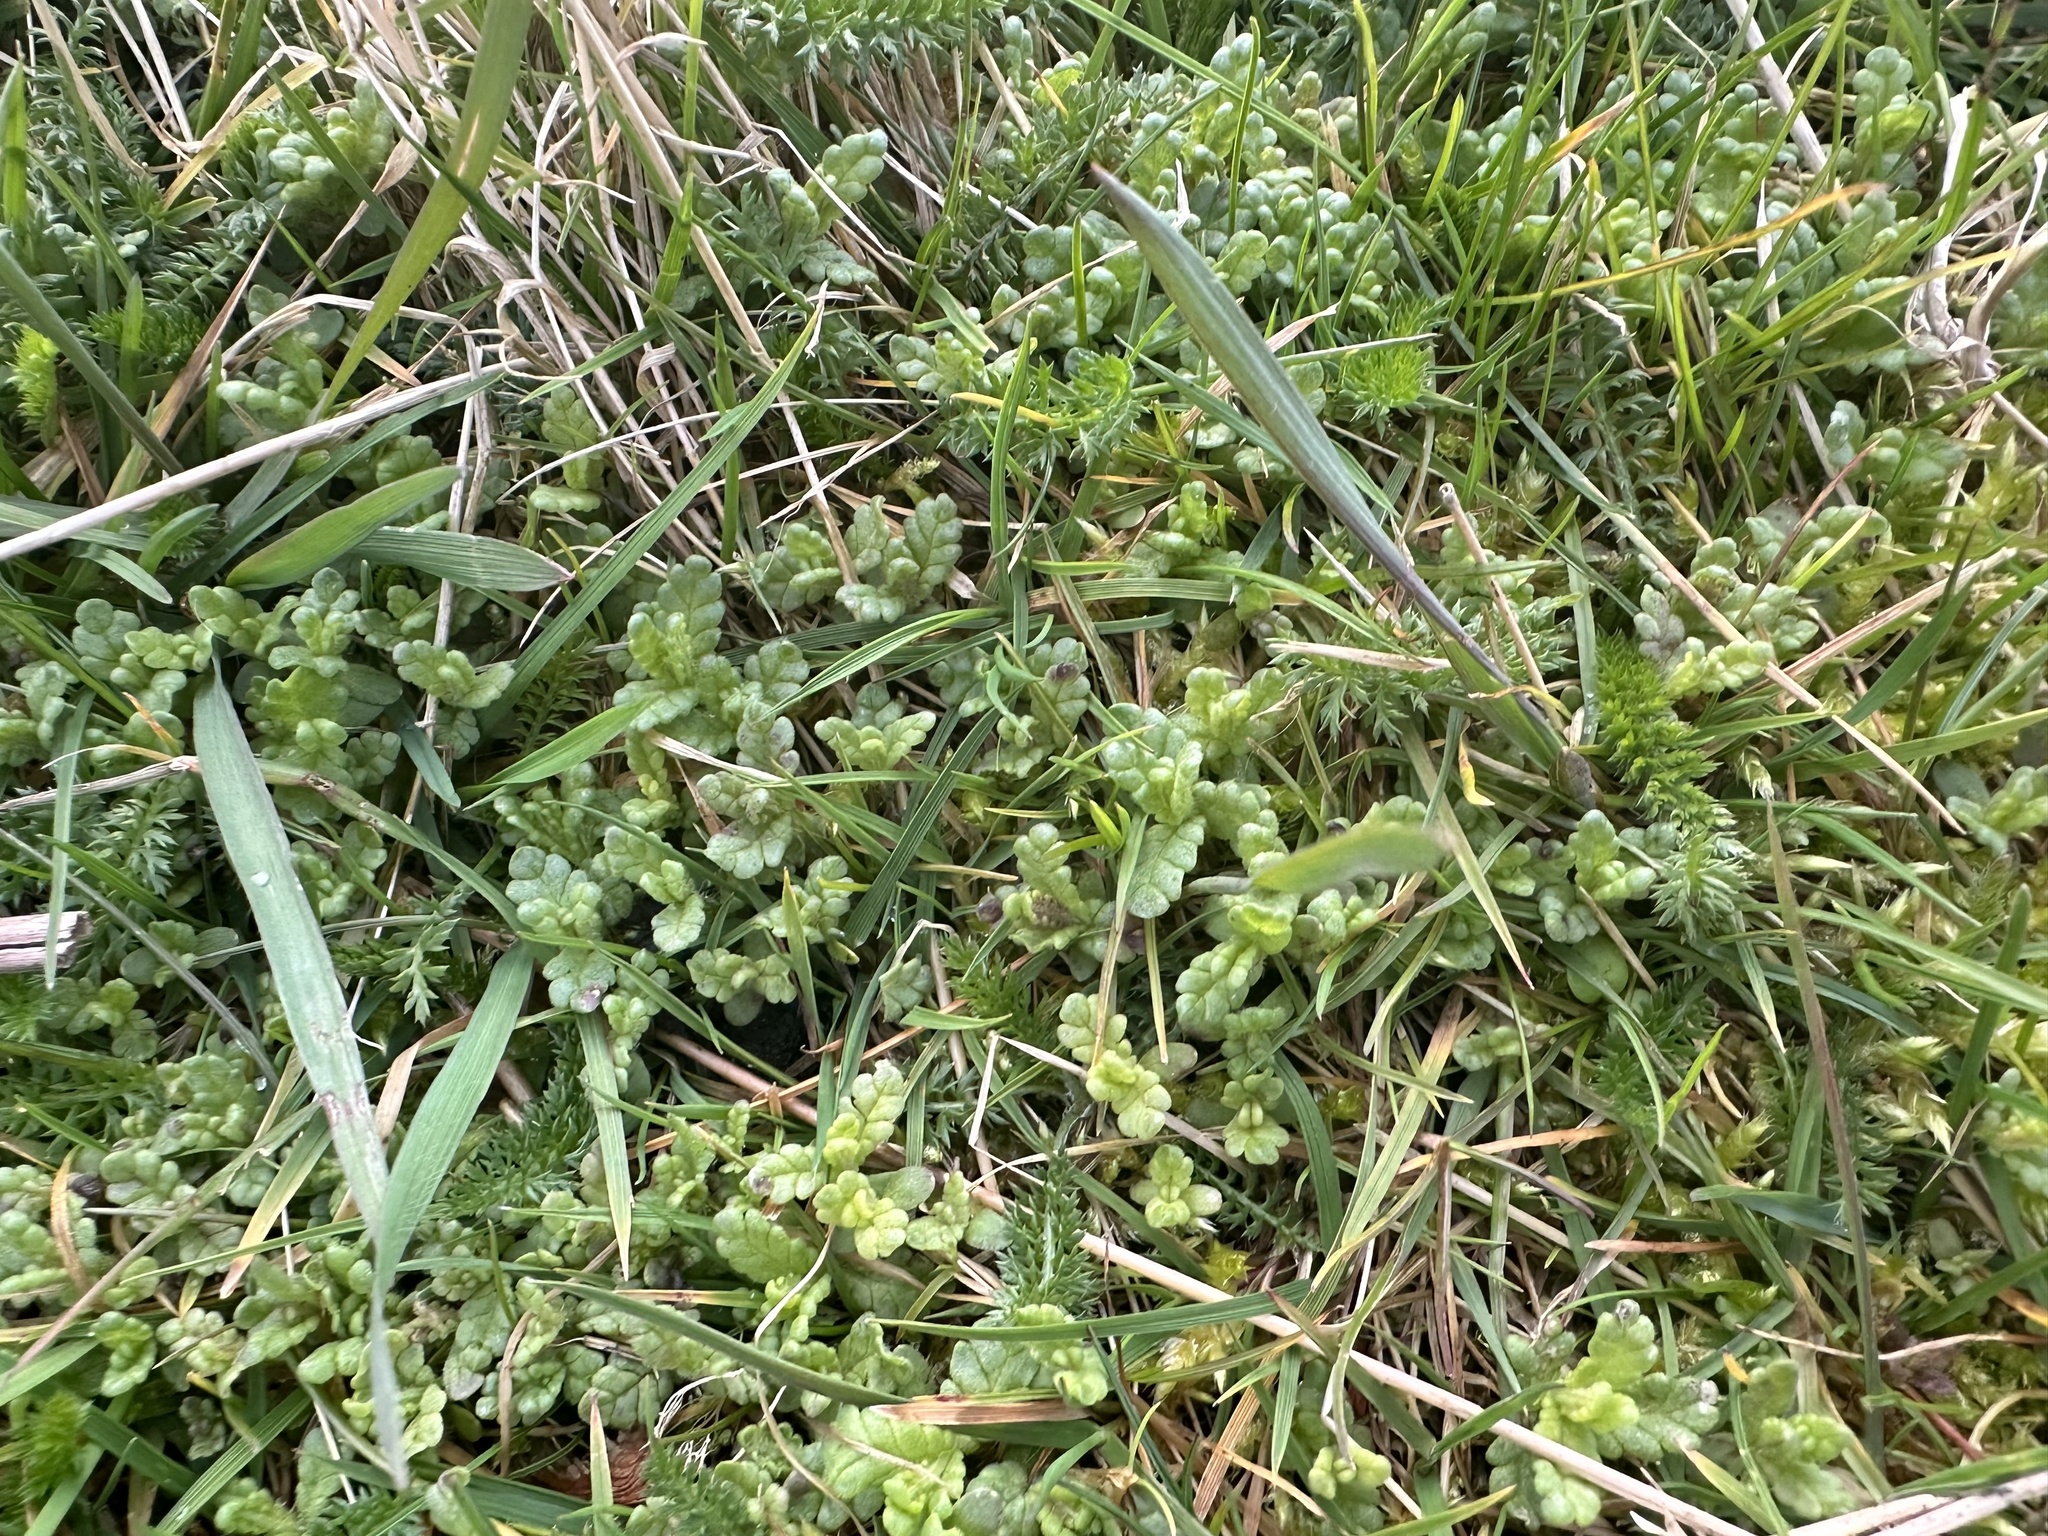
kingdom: Plantae
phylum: Tracheophyta
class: Magnoliopsida
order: Lamiales
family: Orobanchaceae
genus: Rhinanthus
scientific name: Rhinanthus minor
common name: Yellow-rattle
